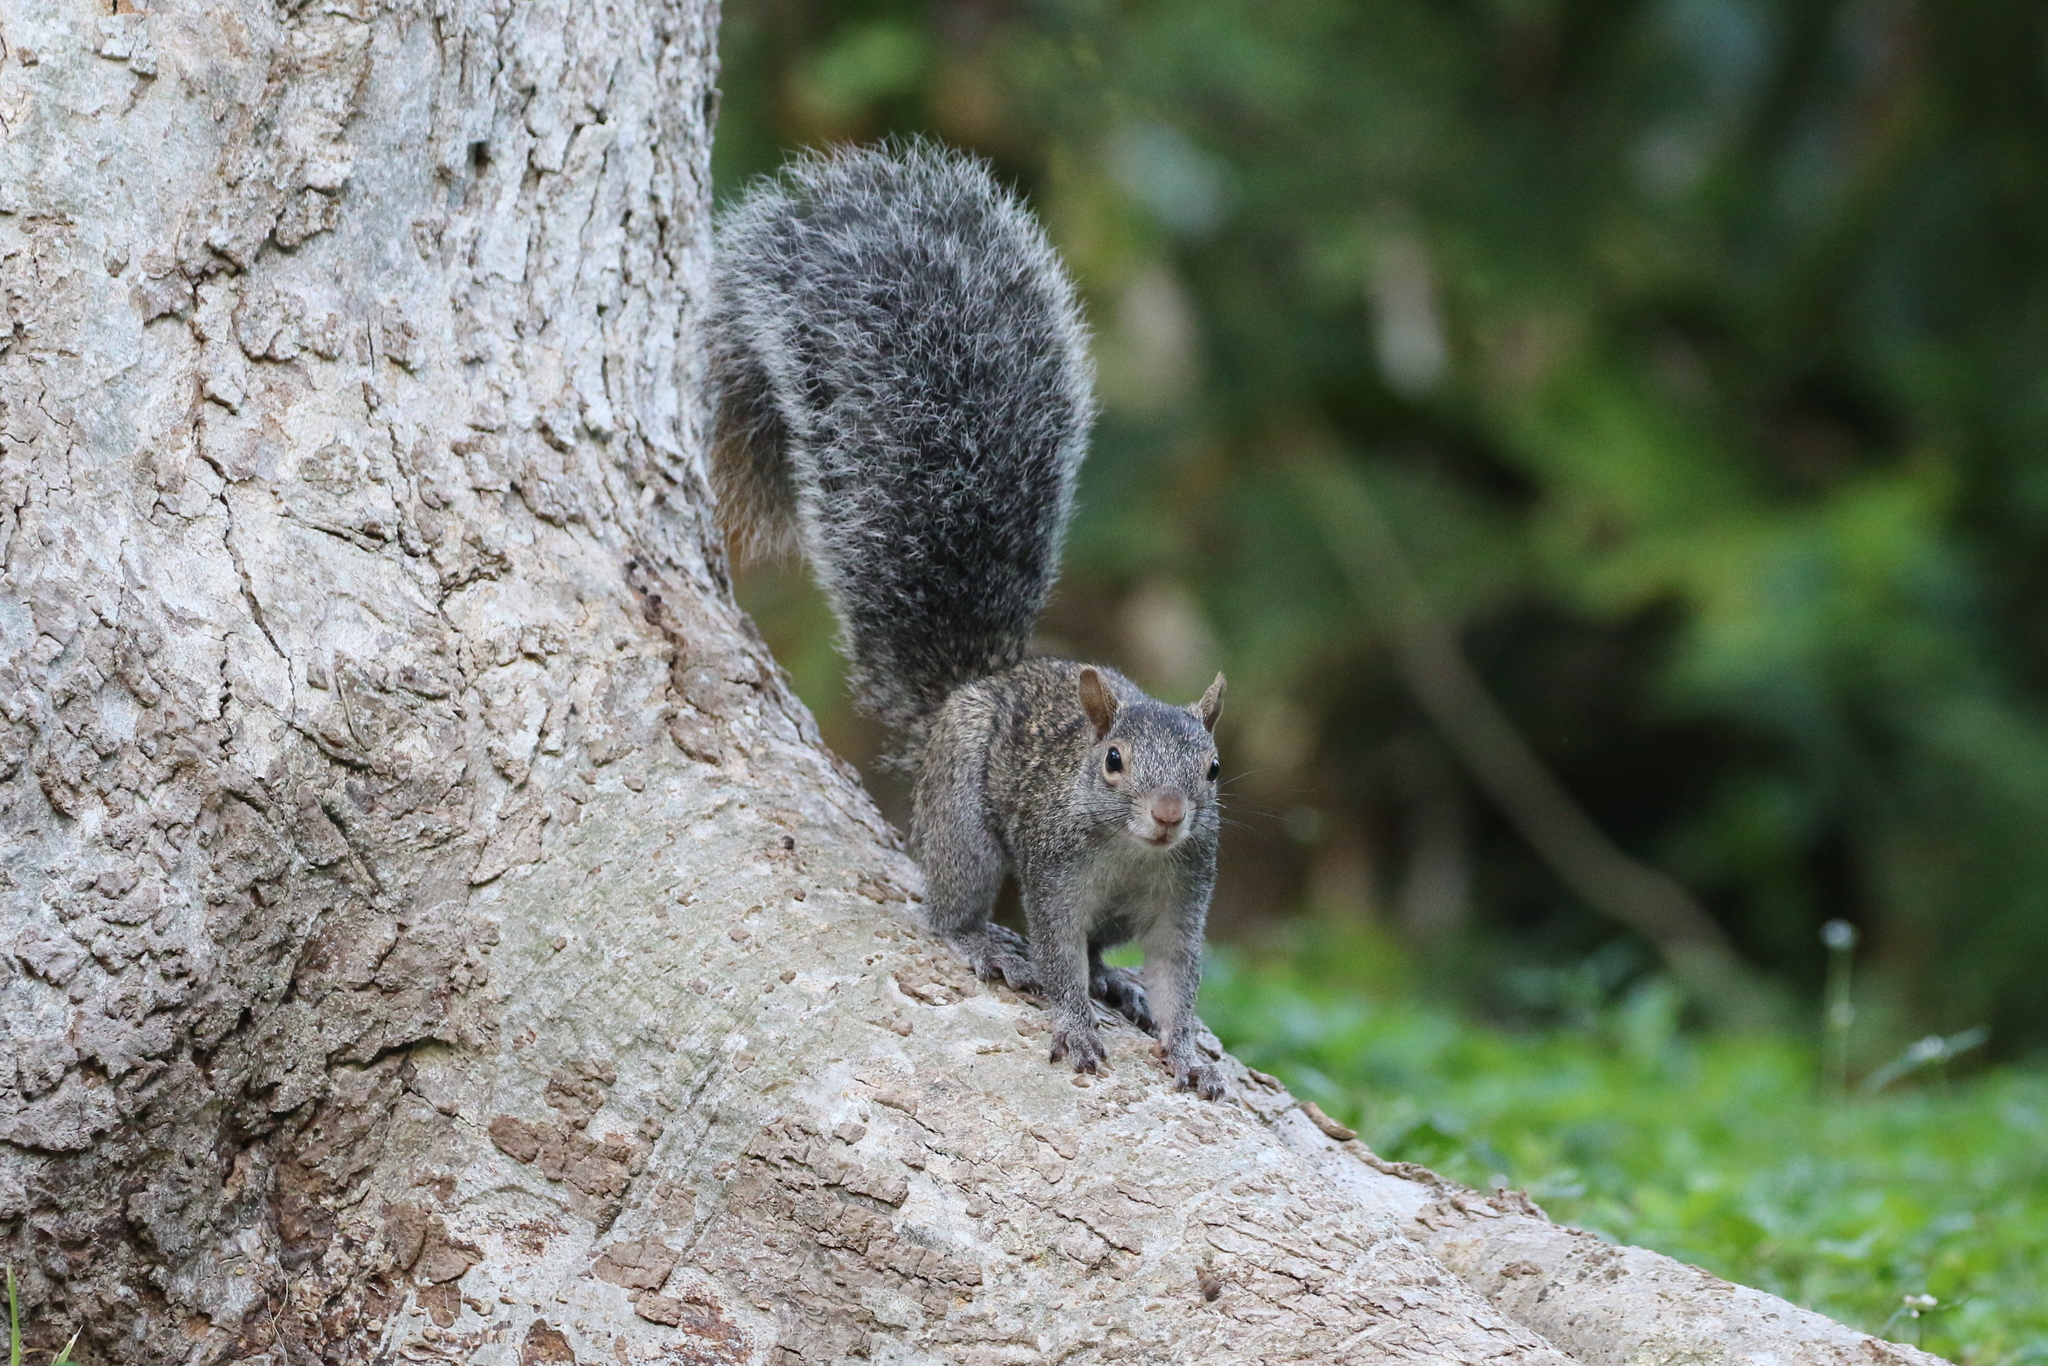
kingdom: Animalia
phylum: Chordata
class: Mammalia
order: Rodentia
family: Sciuridae
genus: Sciurus
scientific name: Sciurus yucatanensis
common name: Yucatan squirrel
